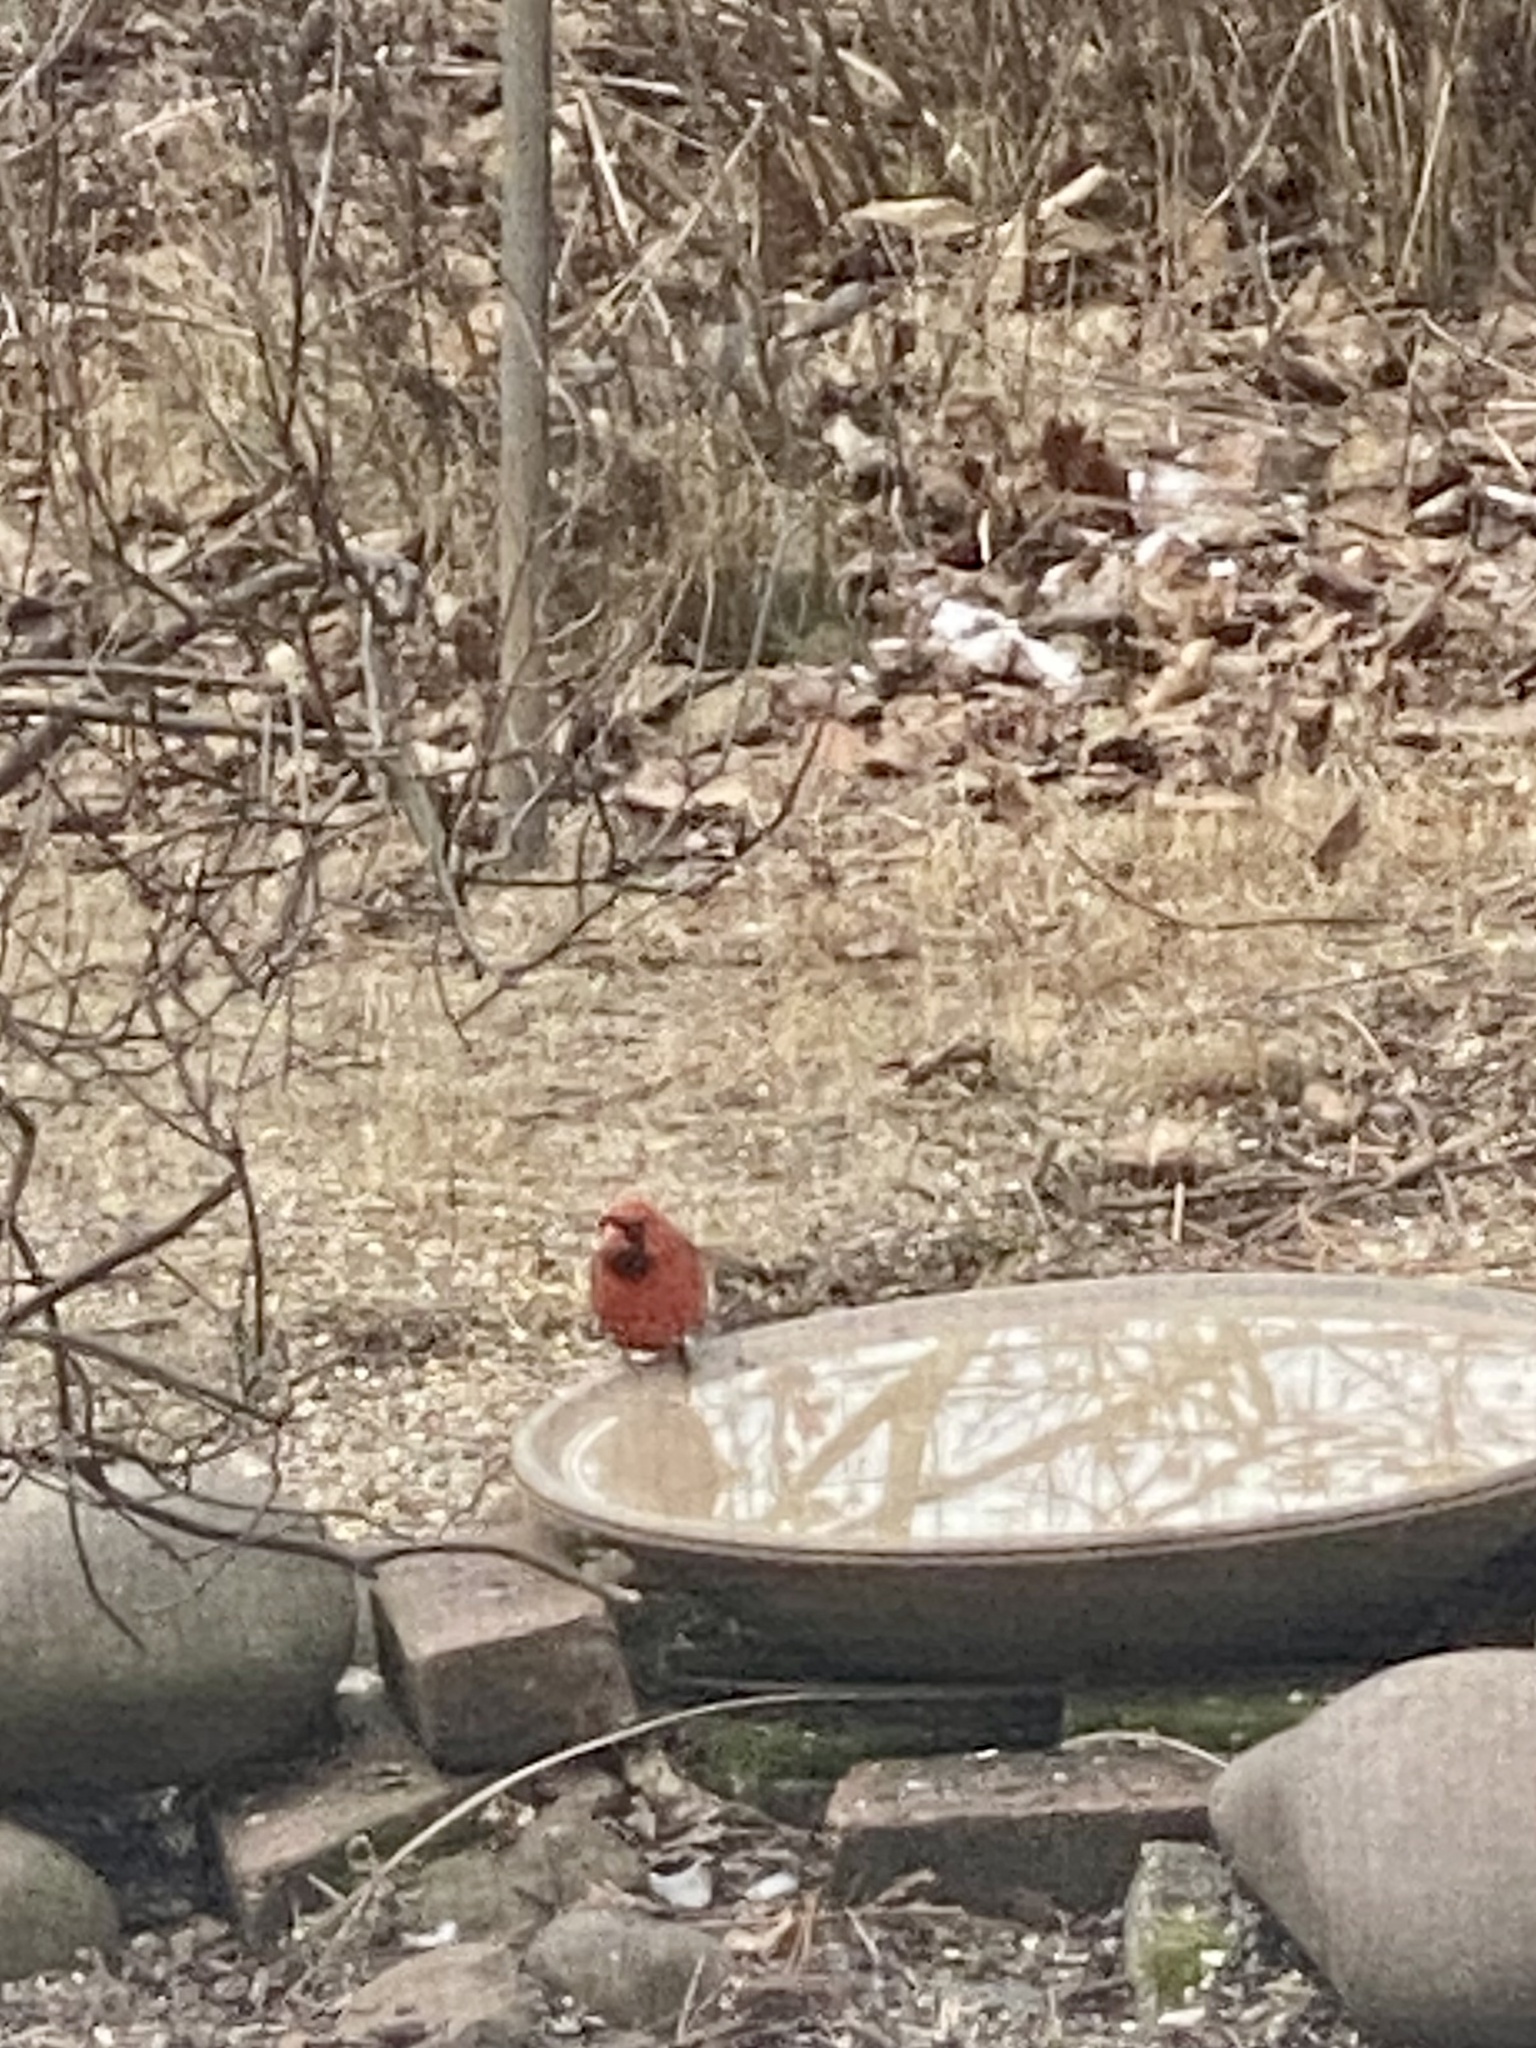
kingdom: Animalia
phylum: Chordata
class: Aves
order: Passeriformes
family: Cardinalidae
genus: Cardinalis
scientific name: Cardinalis cardinalis
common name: Northern cardinal
